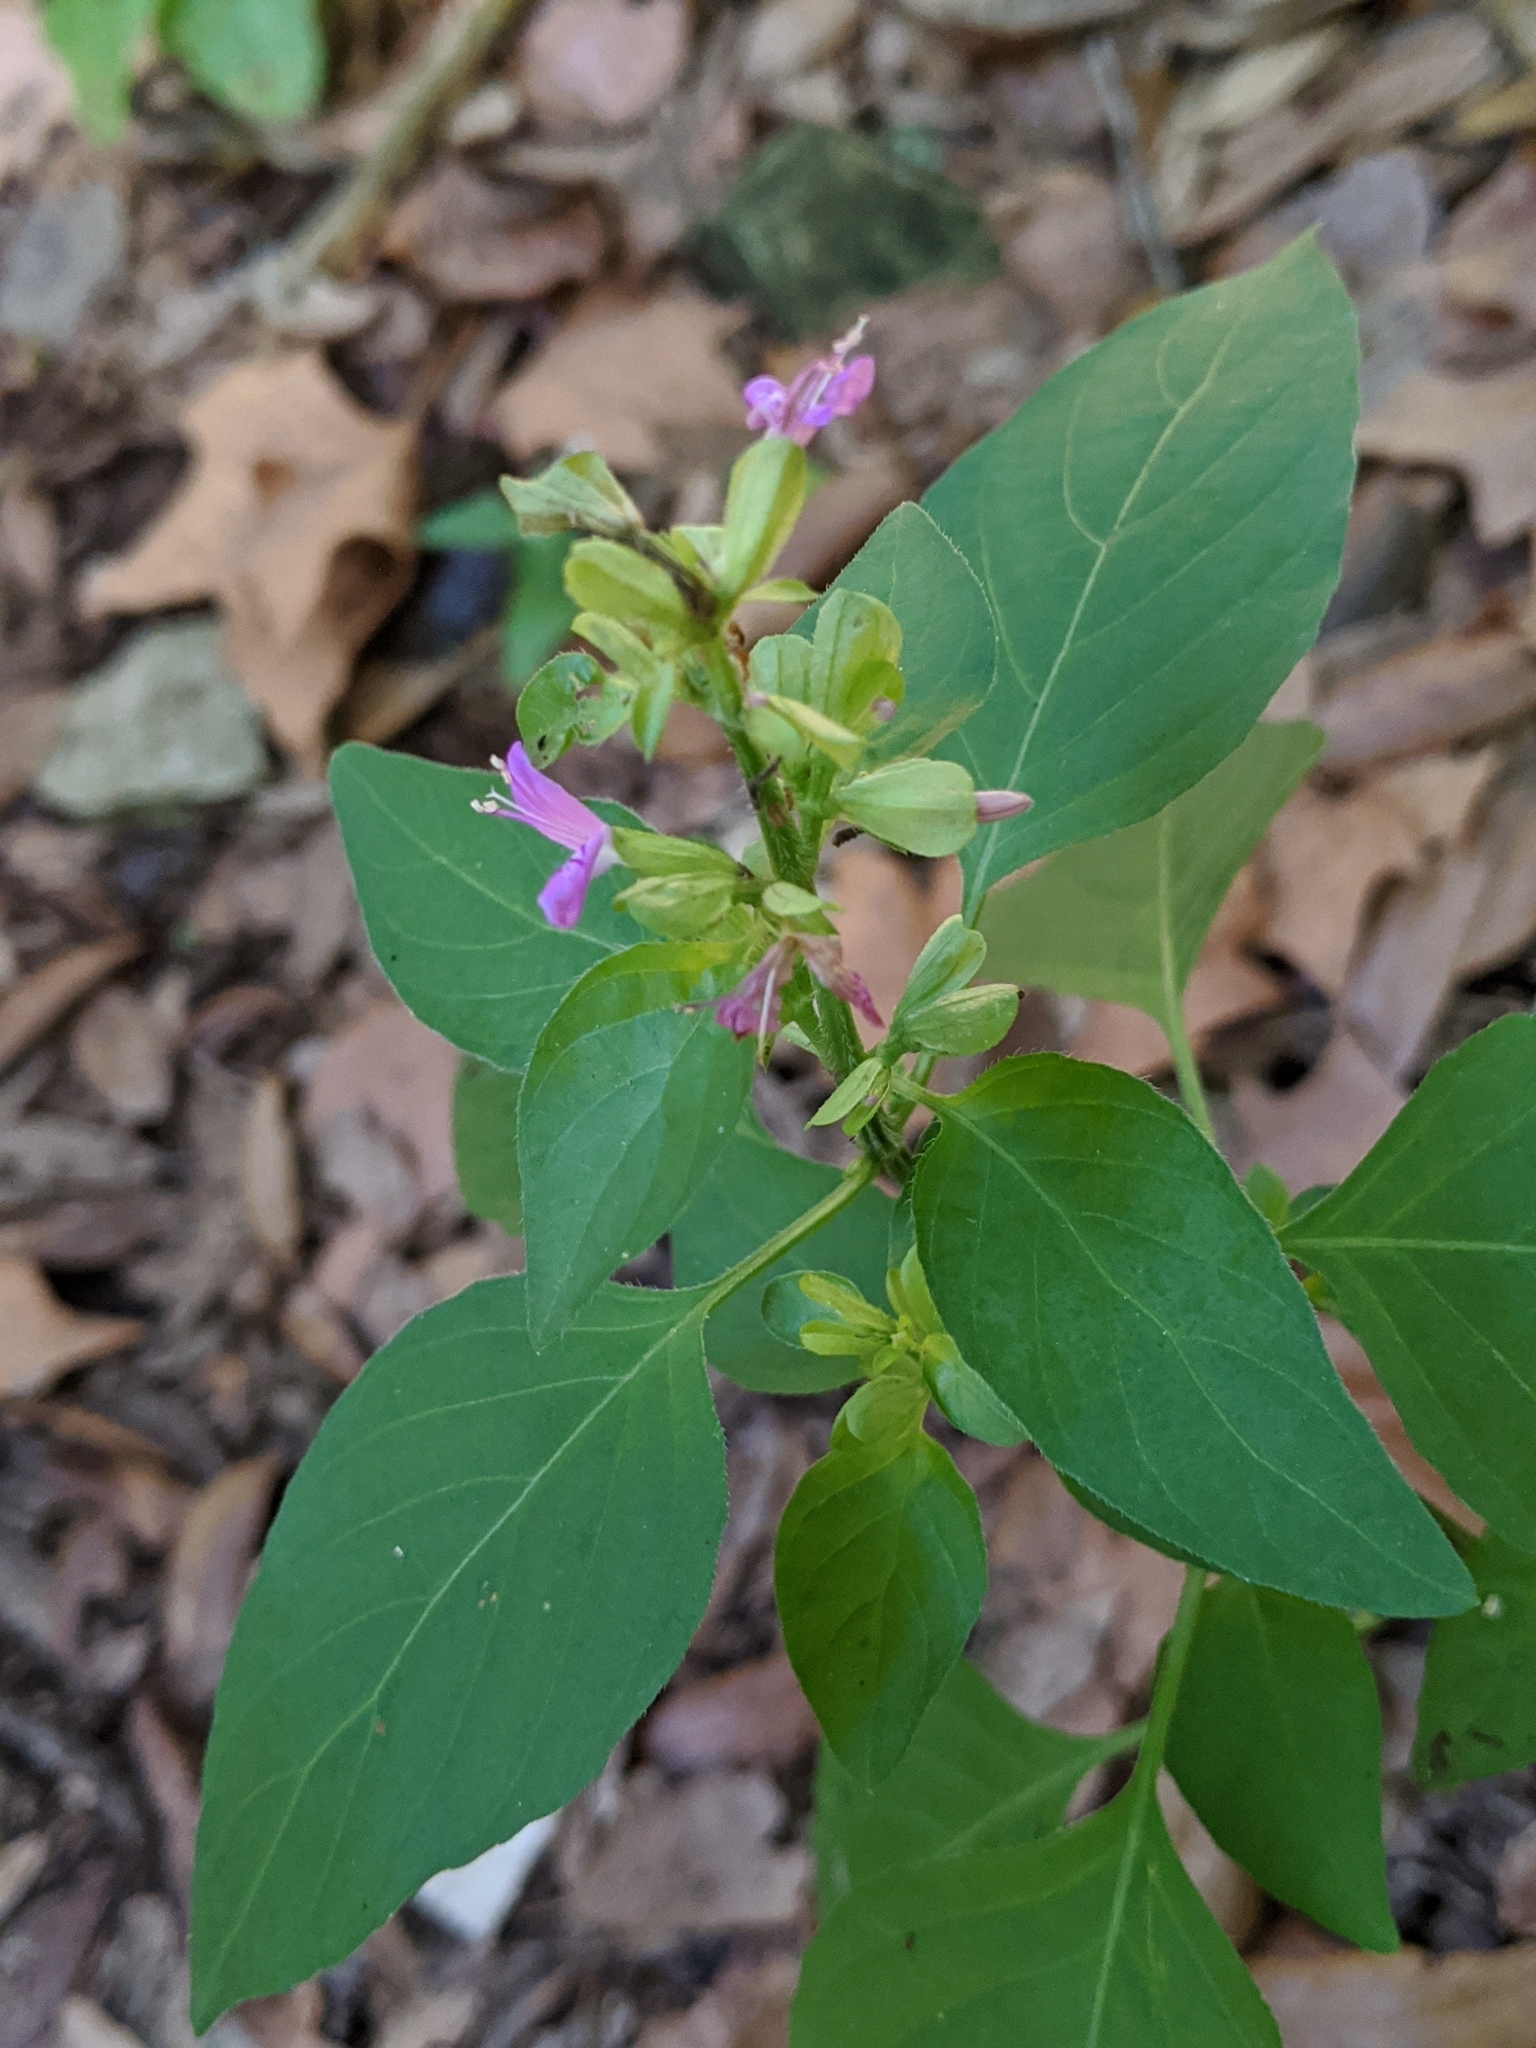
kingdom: Plantae
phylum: Tracheophyta
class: Magnoliopsida
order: Lamiales
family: Acanthaceae
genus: Dicliptera
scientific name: Dicliptera brachiata
